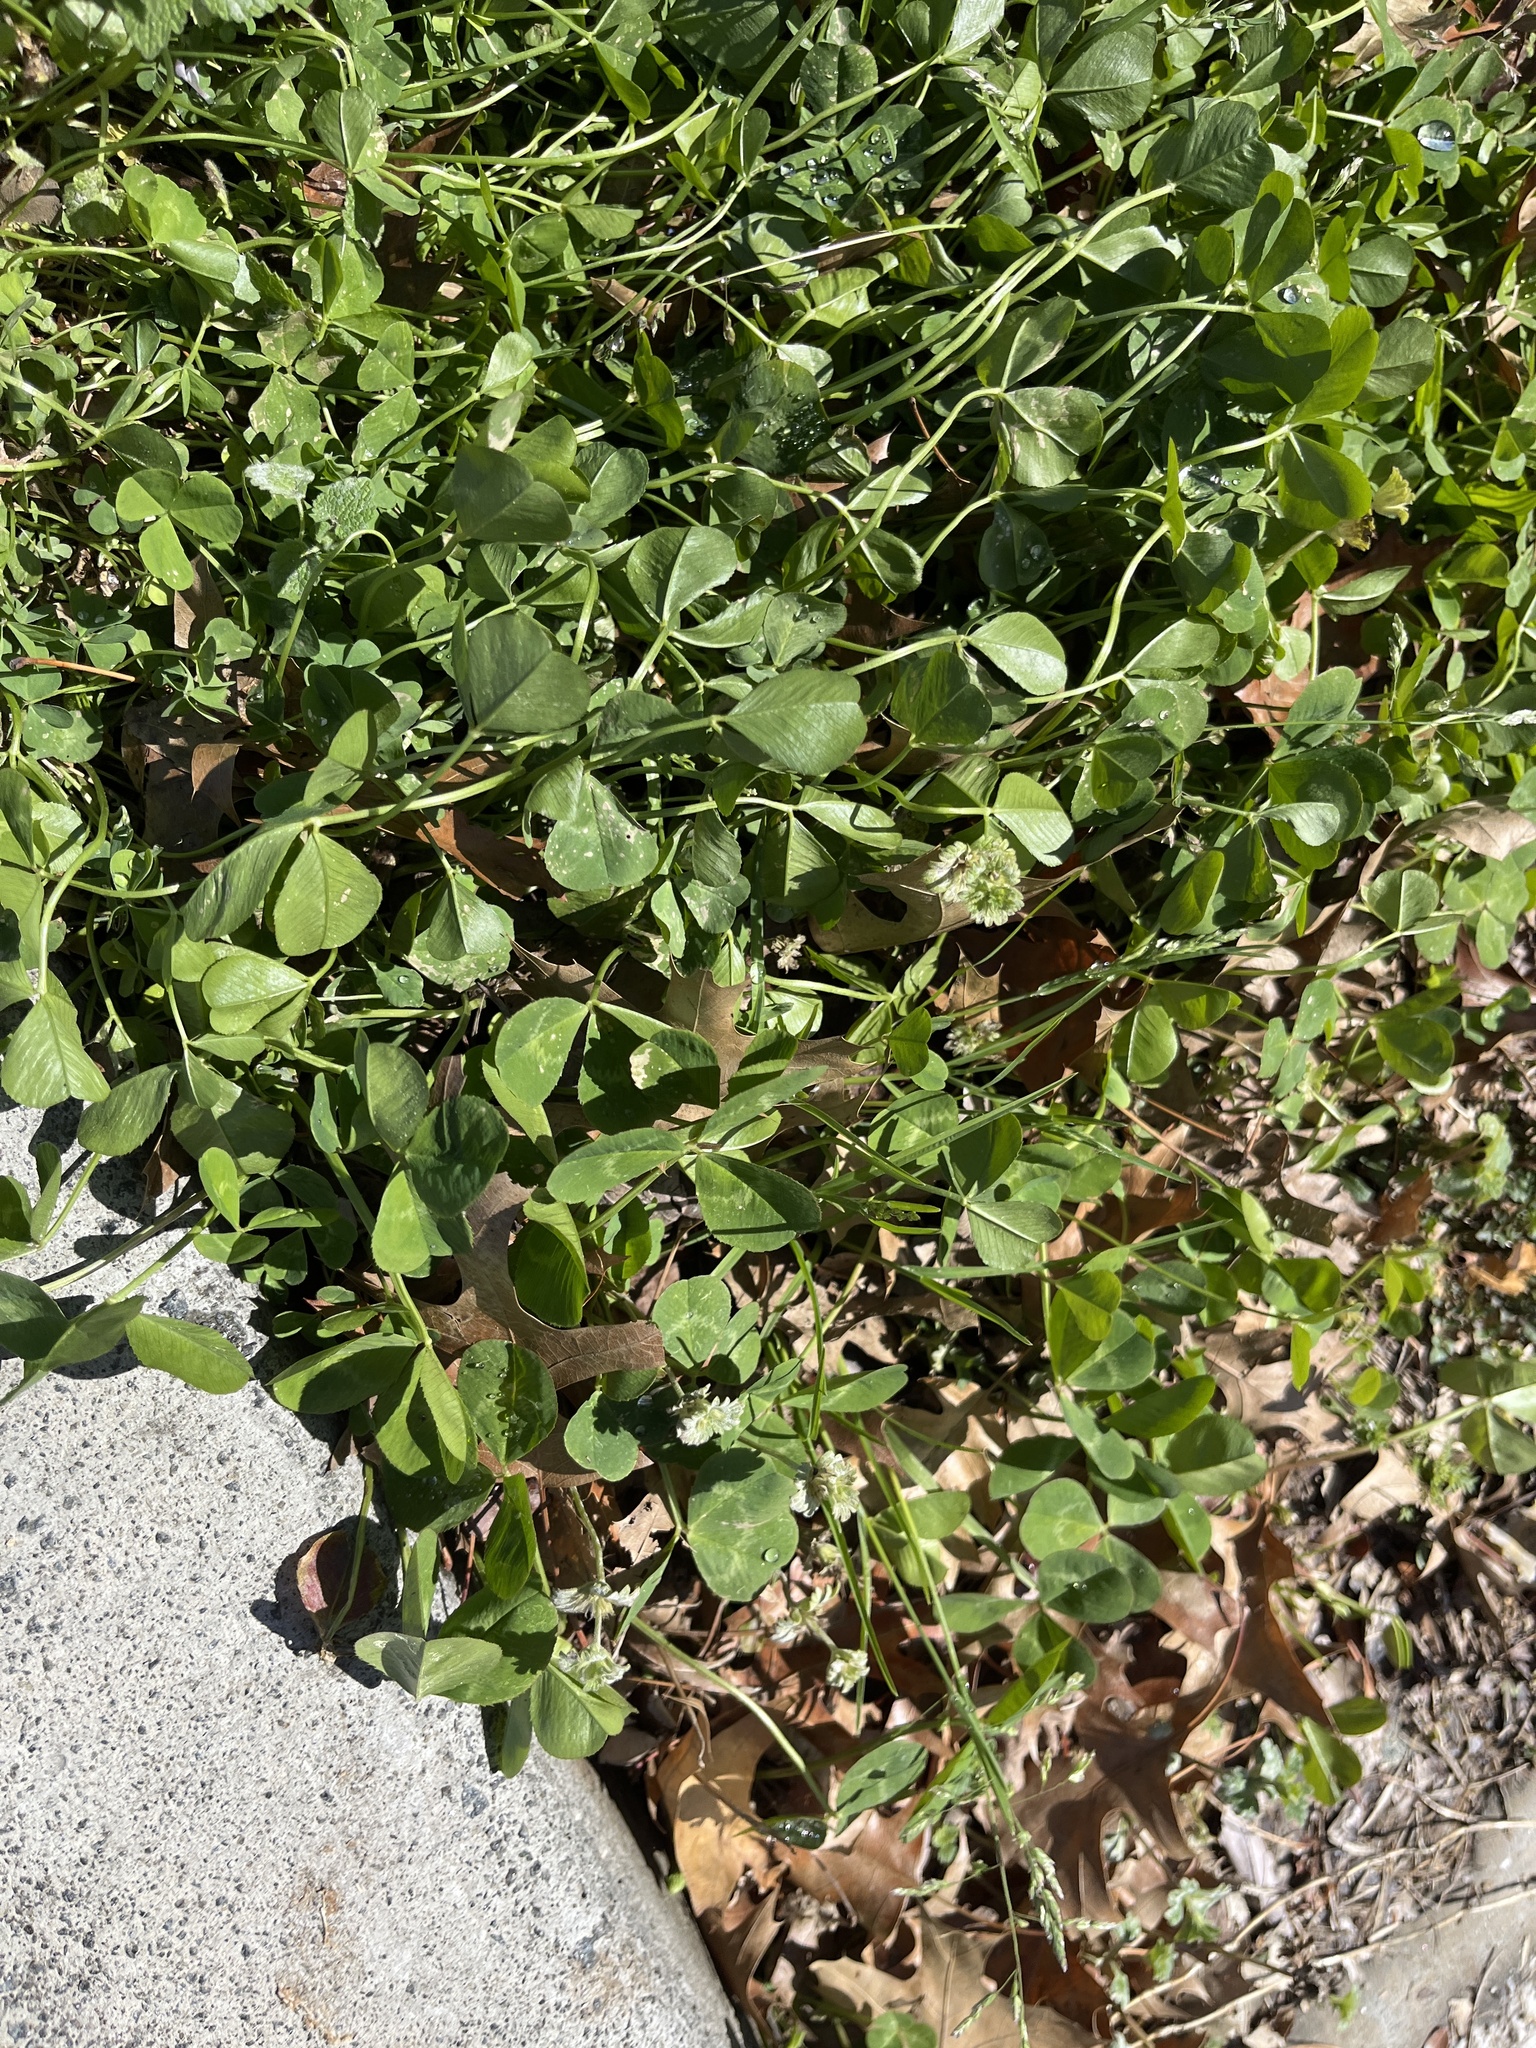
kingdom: Plantae
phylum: Tracheophyta
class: Magnoliopsida
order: Fabales
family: Fabaceae
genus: Trifolium
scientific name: Trifolium repens
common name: White clover
